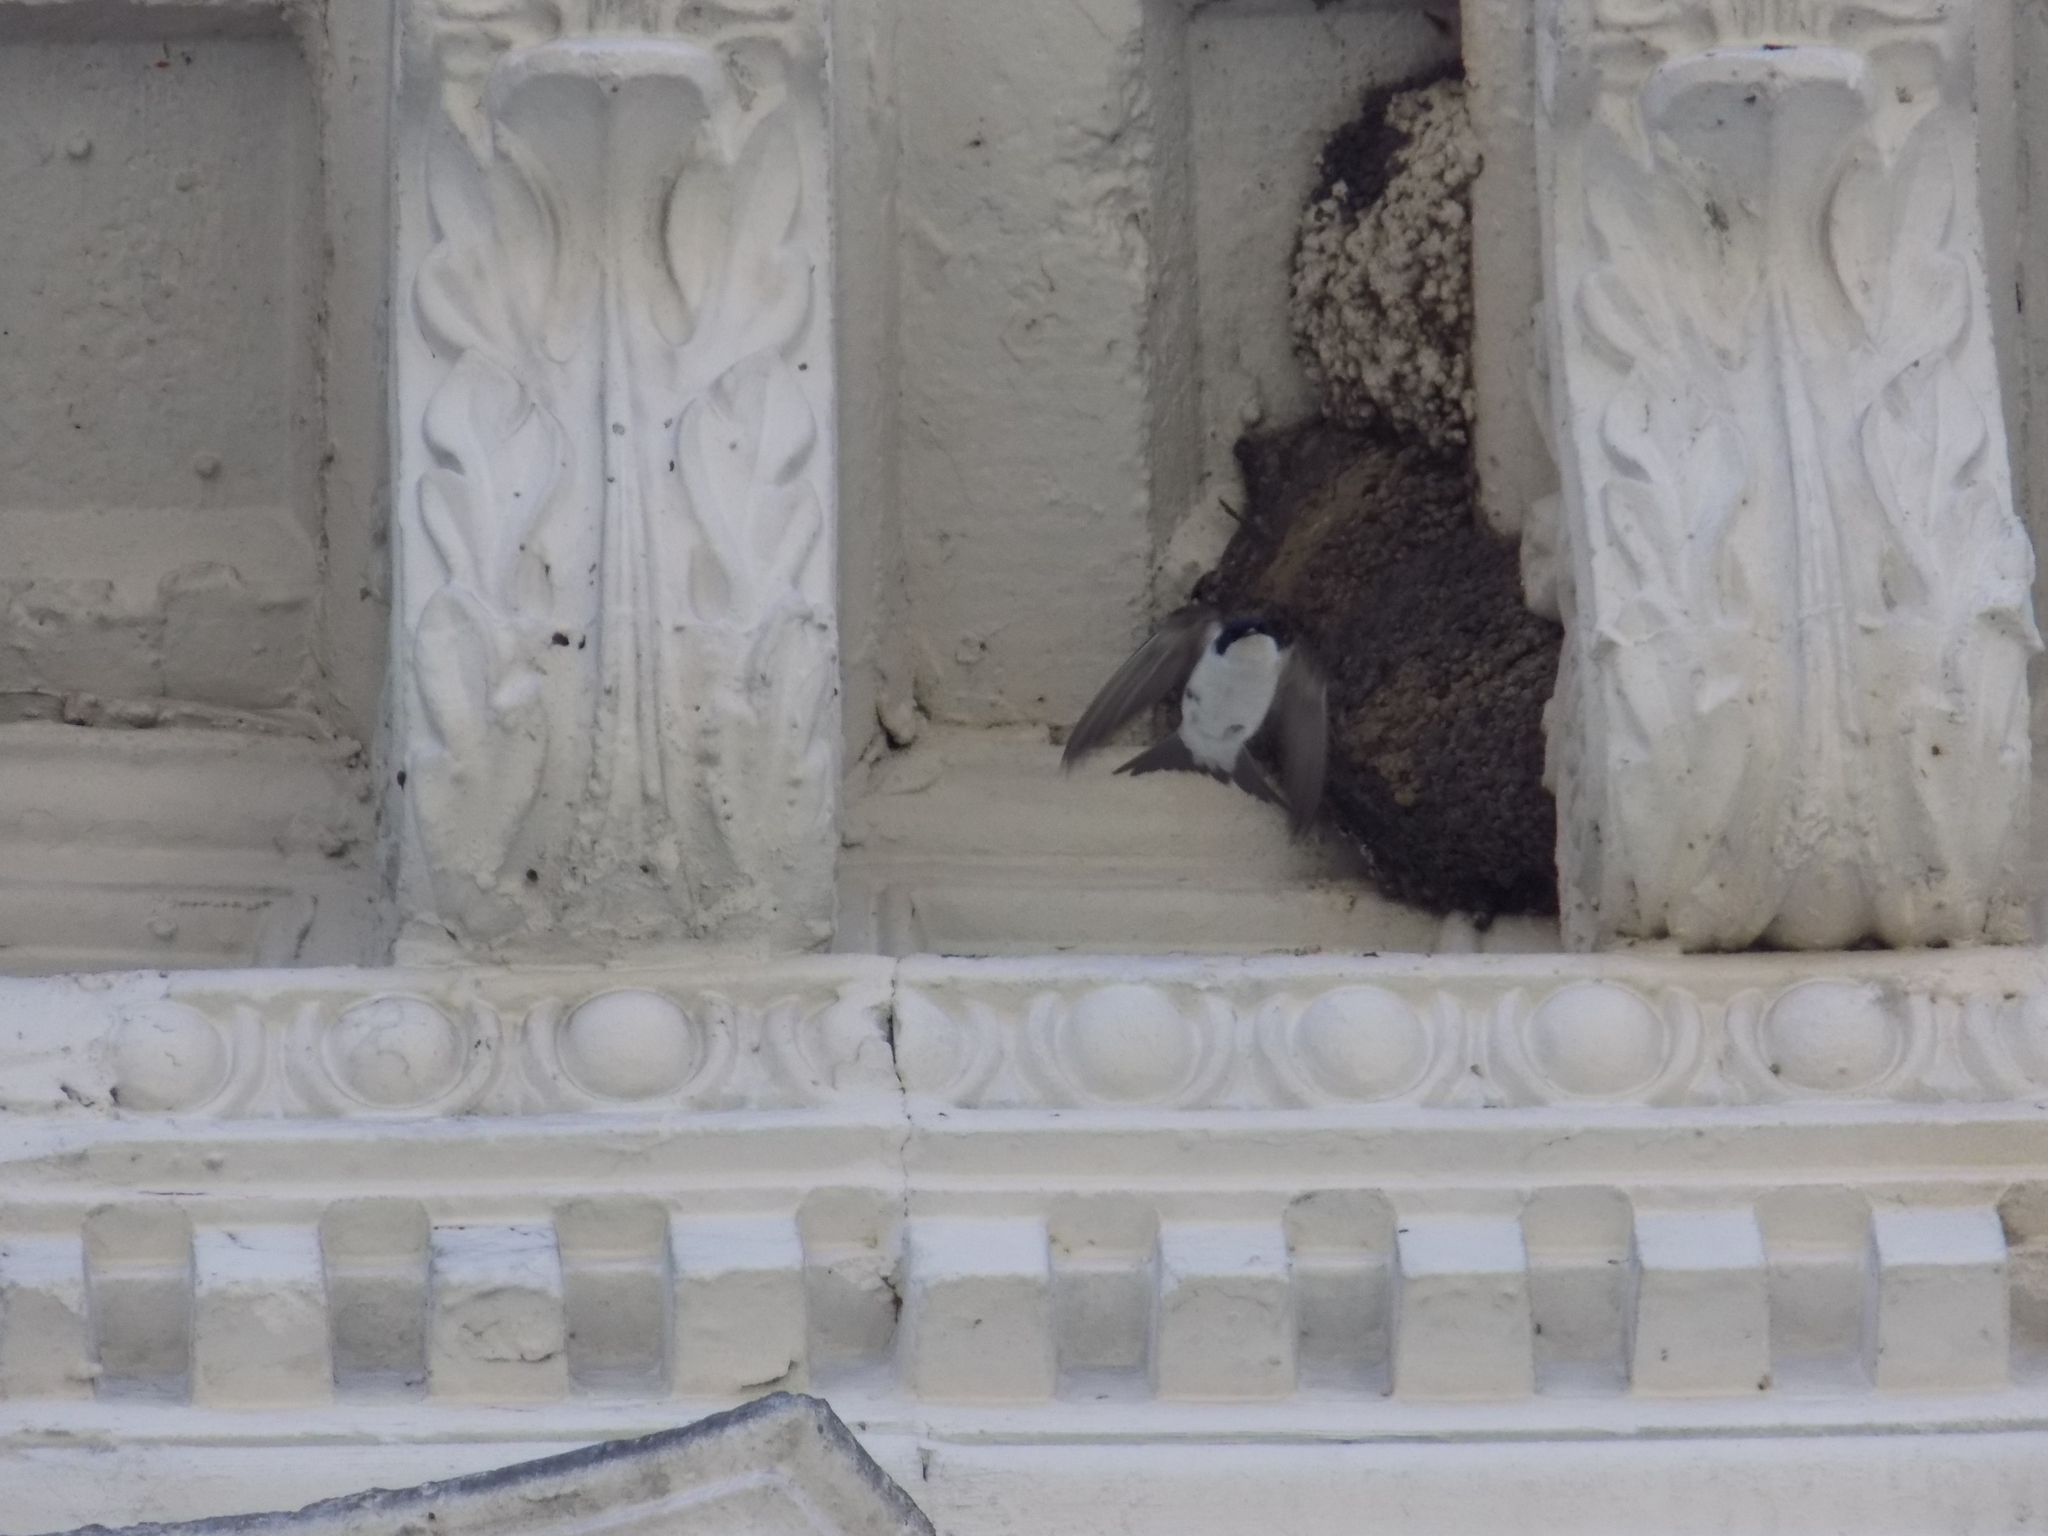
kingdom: Animalia
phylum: Chordata
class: Aves
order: Passeriformes
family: Hirundinidae
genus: Delichon
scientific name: Delichon urbicum
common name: Common house martin
